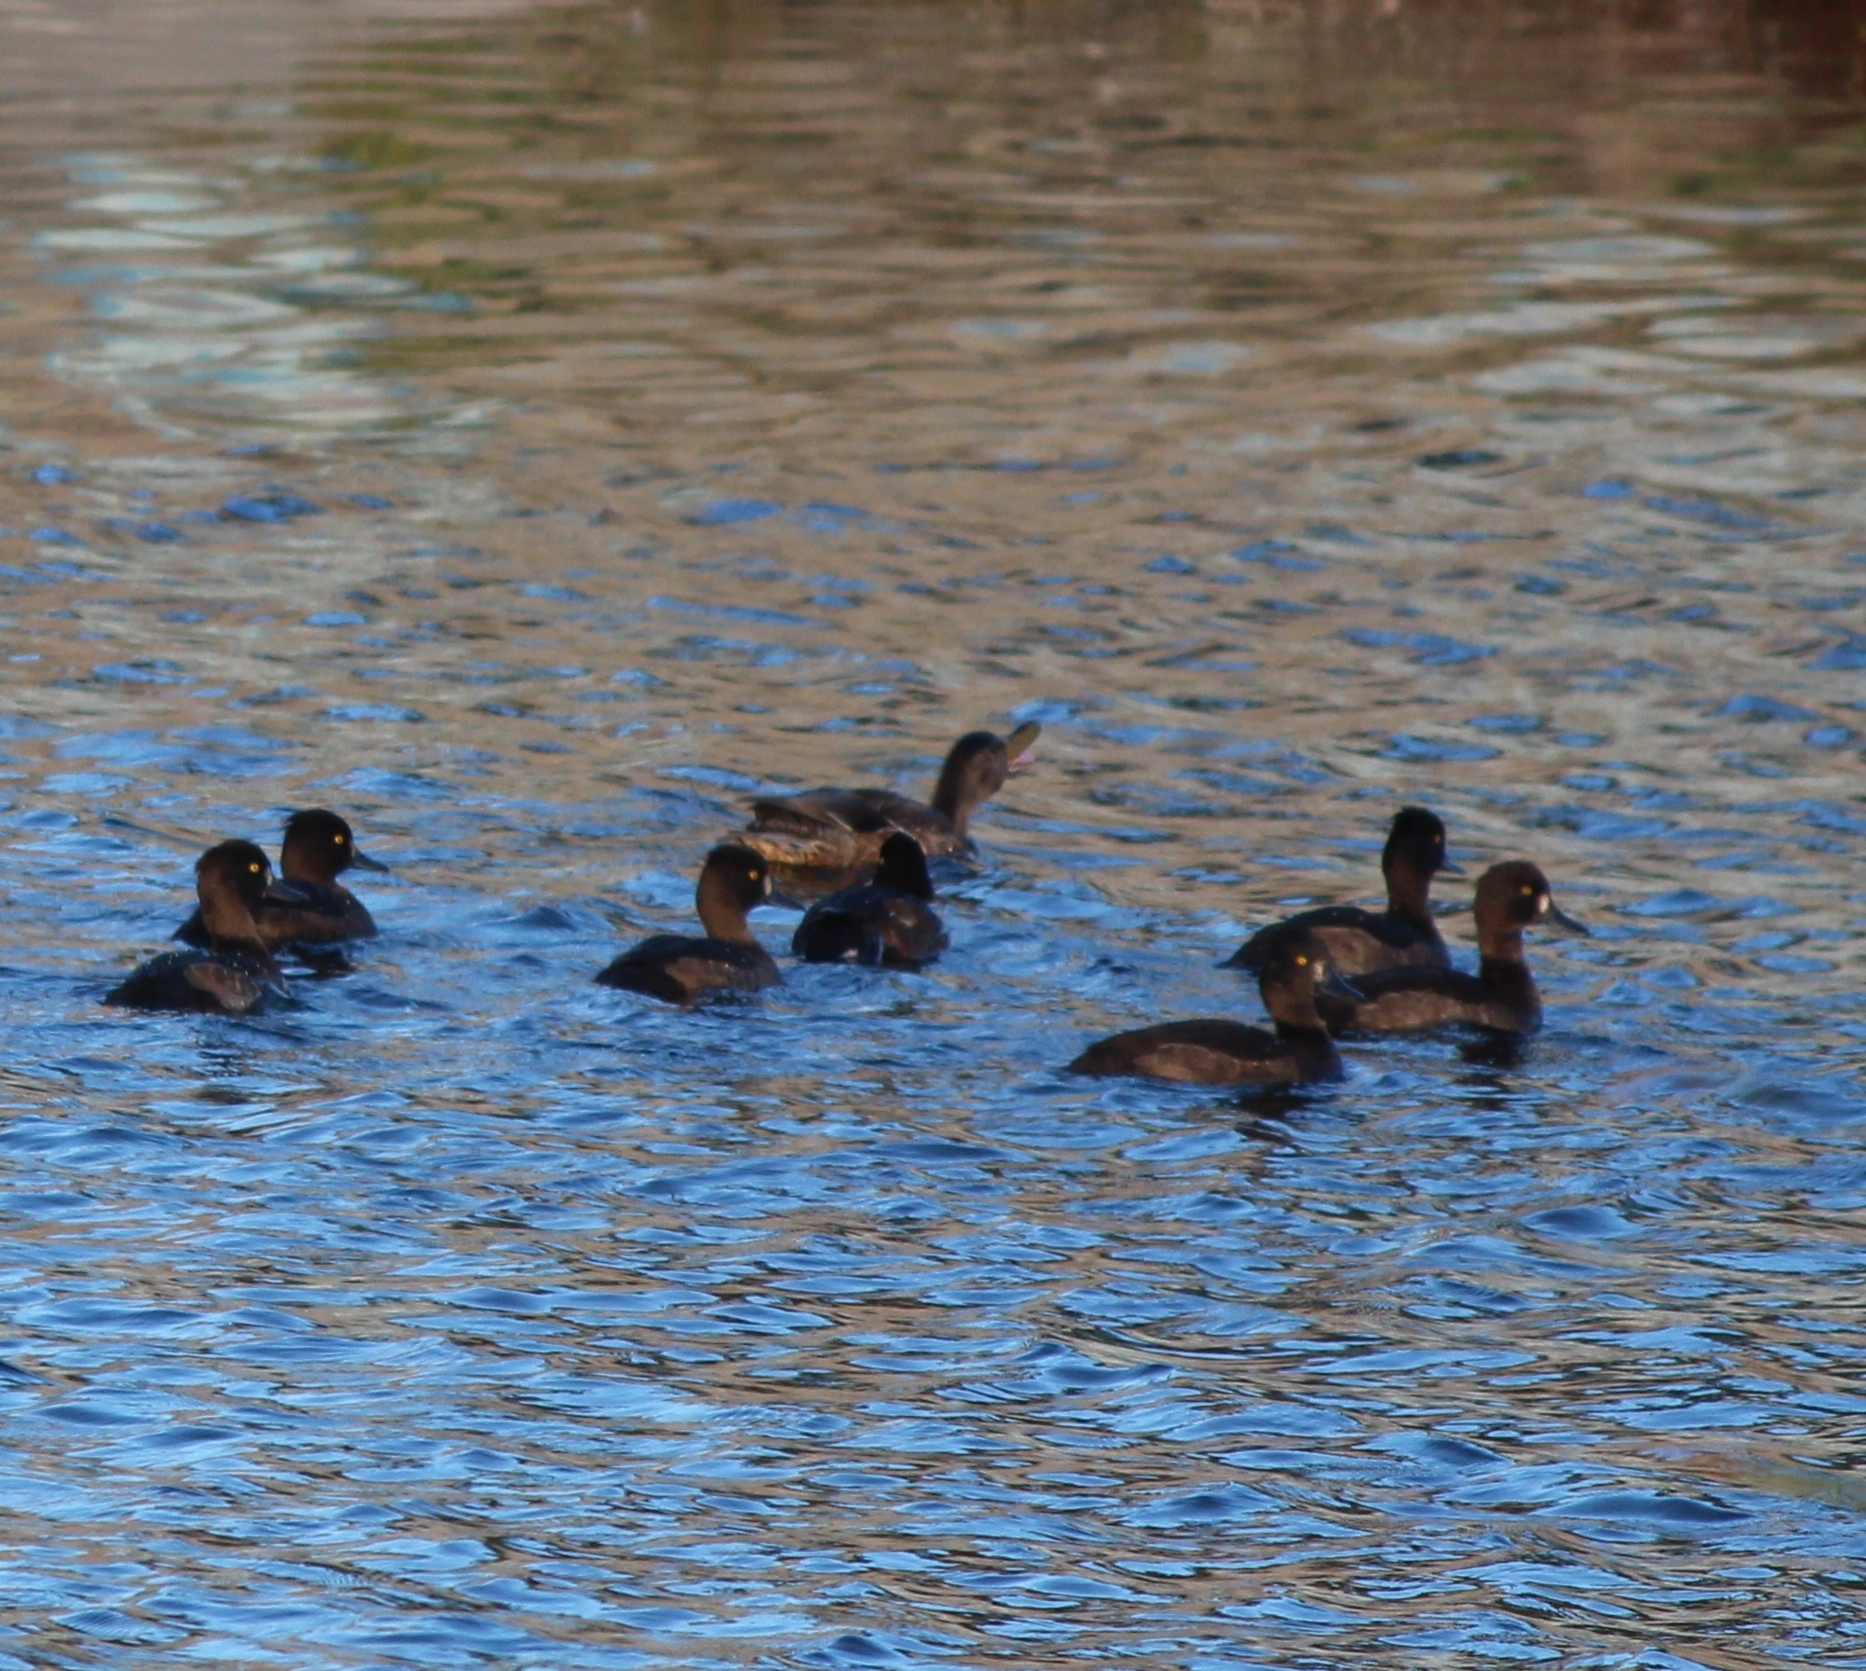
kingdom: Animalia
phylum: Chordata
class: Aves
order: Anseriformes
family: Anatidae
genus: Aythya
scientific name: Aythya fuligula
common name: Tufted duck
